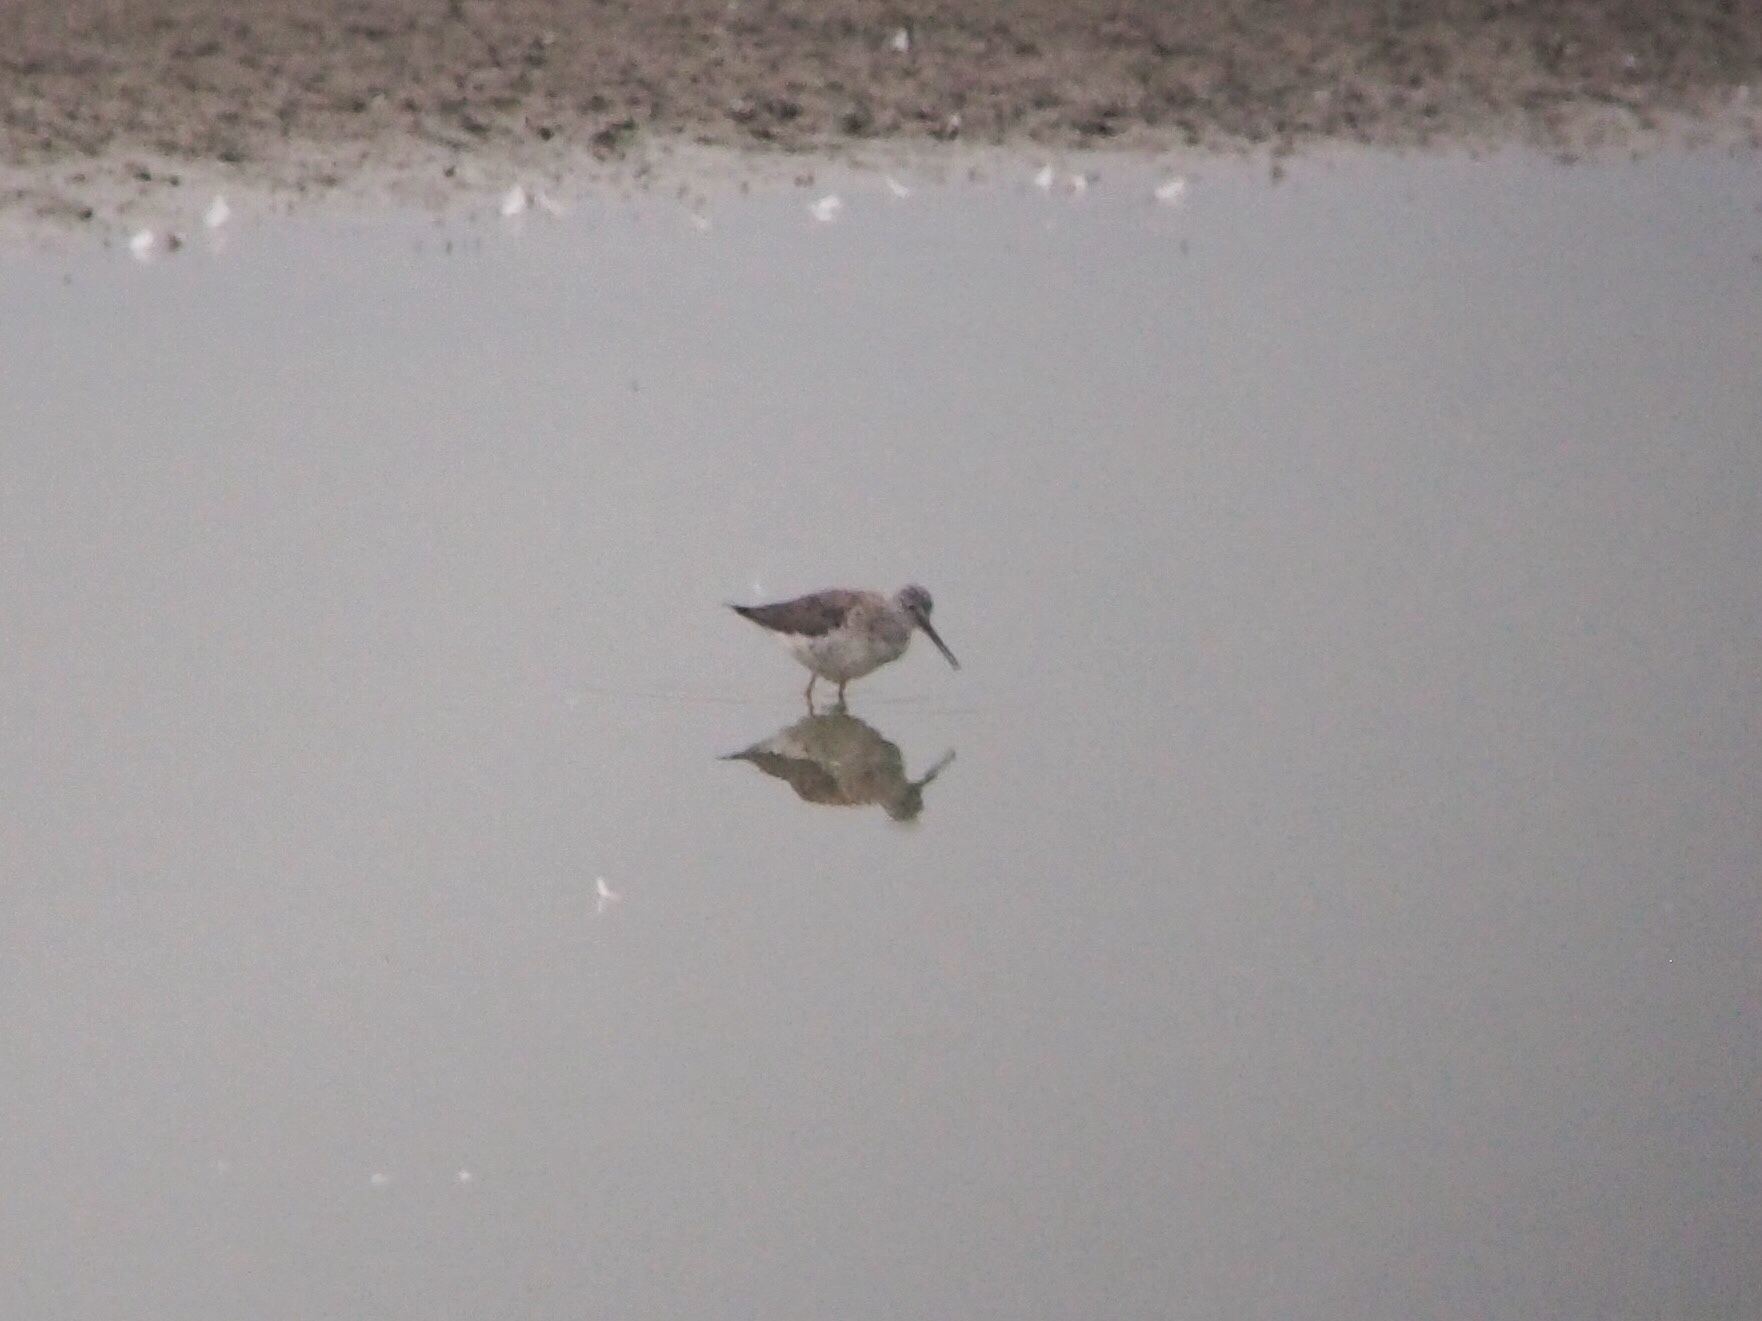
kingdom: Animalia
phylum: Chordata
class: Aves
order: Charadriiformes
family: Scolopacidae
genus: Tringa
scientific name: Tringa melanoleuca
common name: Greater yellowlegs
